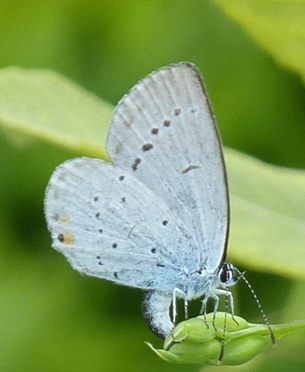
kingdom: Animalia
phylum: Arthropoda
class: Insecta
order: Lepidoptera
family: Lycaenidae
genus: Elkalyce
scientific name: Elkalyce argiades
